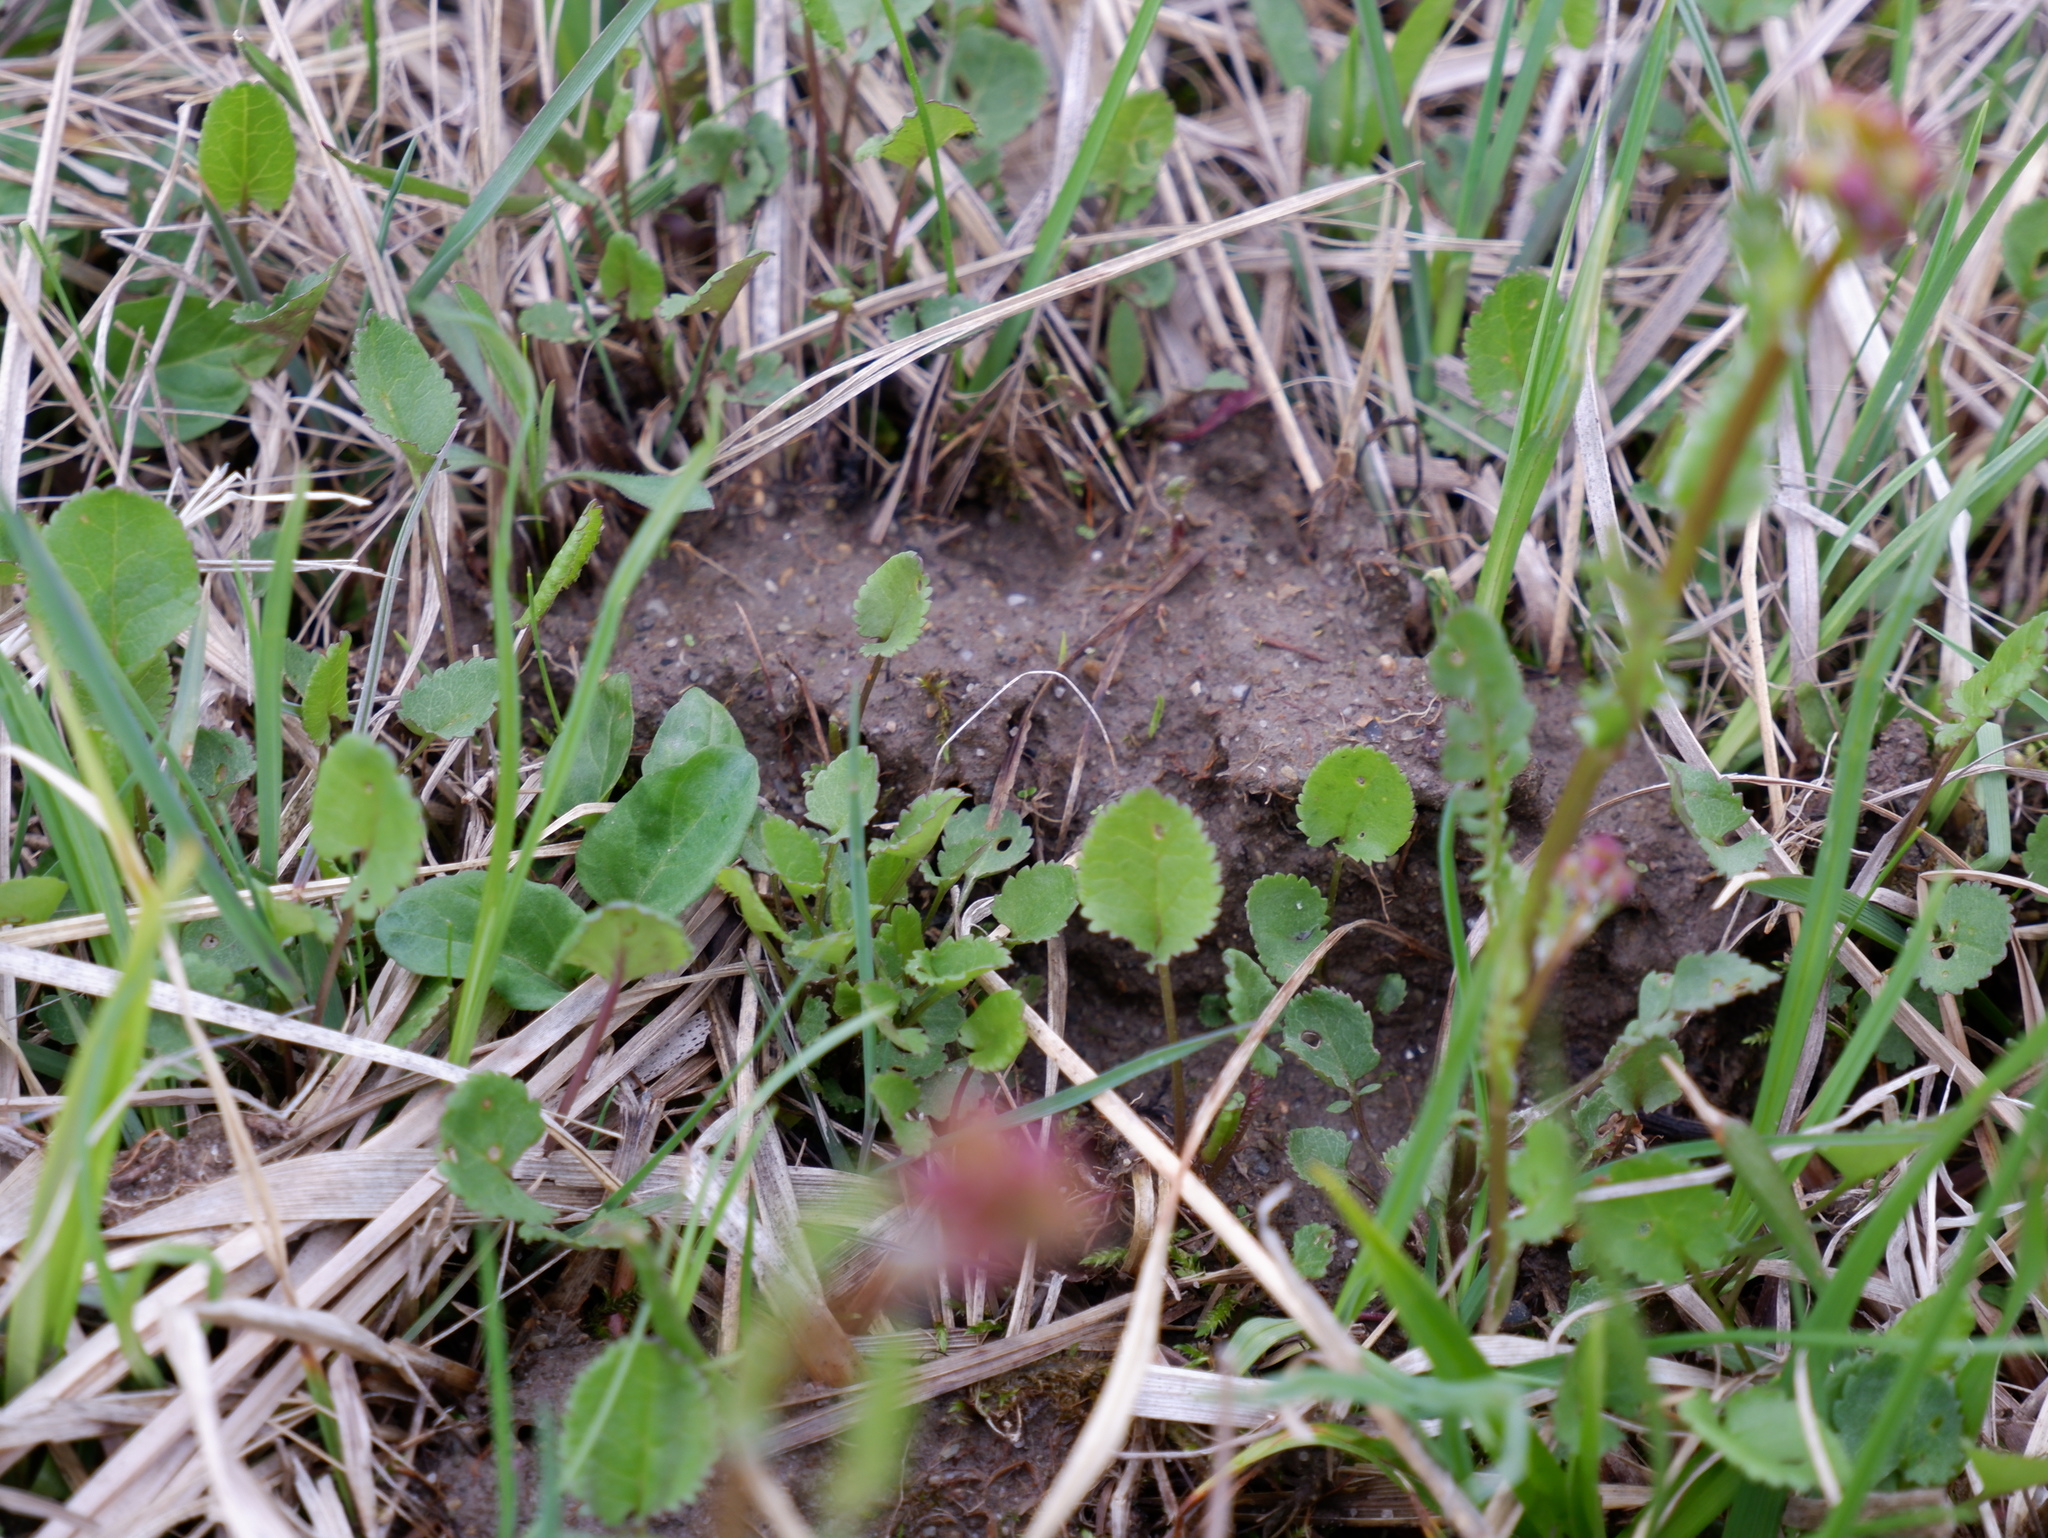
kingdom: Plantae
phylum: Tracheophyta
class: Magnoliopsida
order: Asterales
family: Asteraceae
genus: Packera
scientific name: Packera obovata
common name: Round-leaf ragwort
